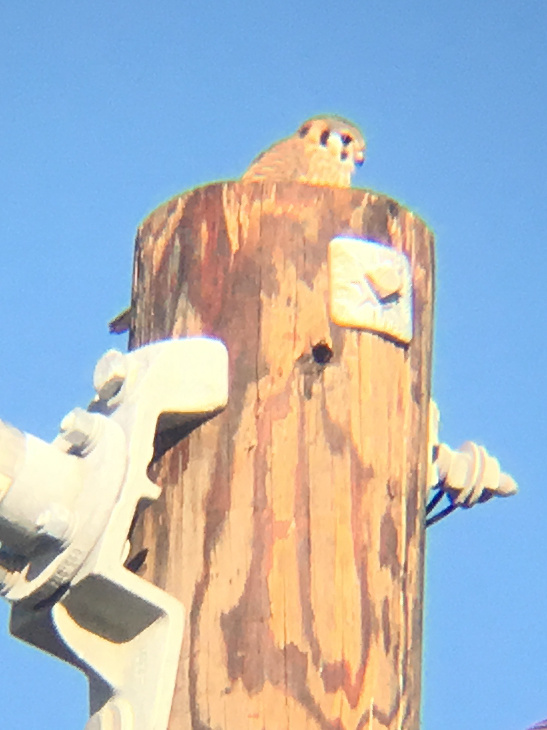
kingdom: Animalia
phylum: Chordata
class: Aves
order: Falconiformes
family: Falconidae
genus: Falco
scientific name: Falco sparverius
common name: American kestrel
